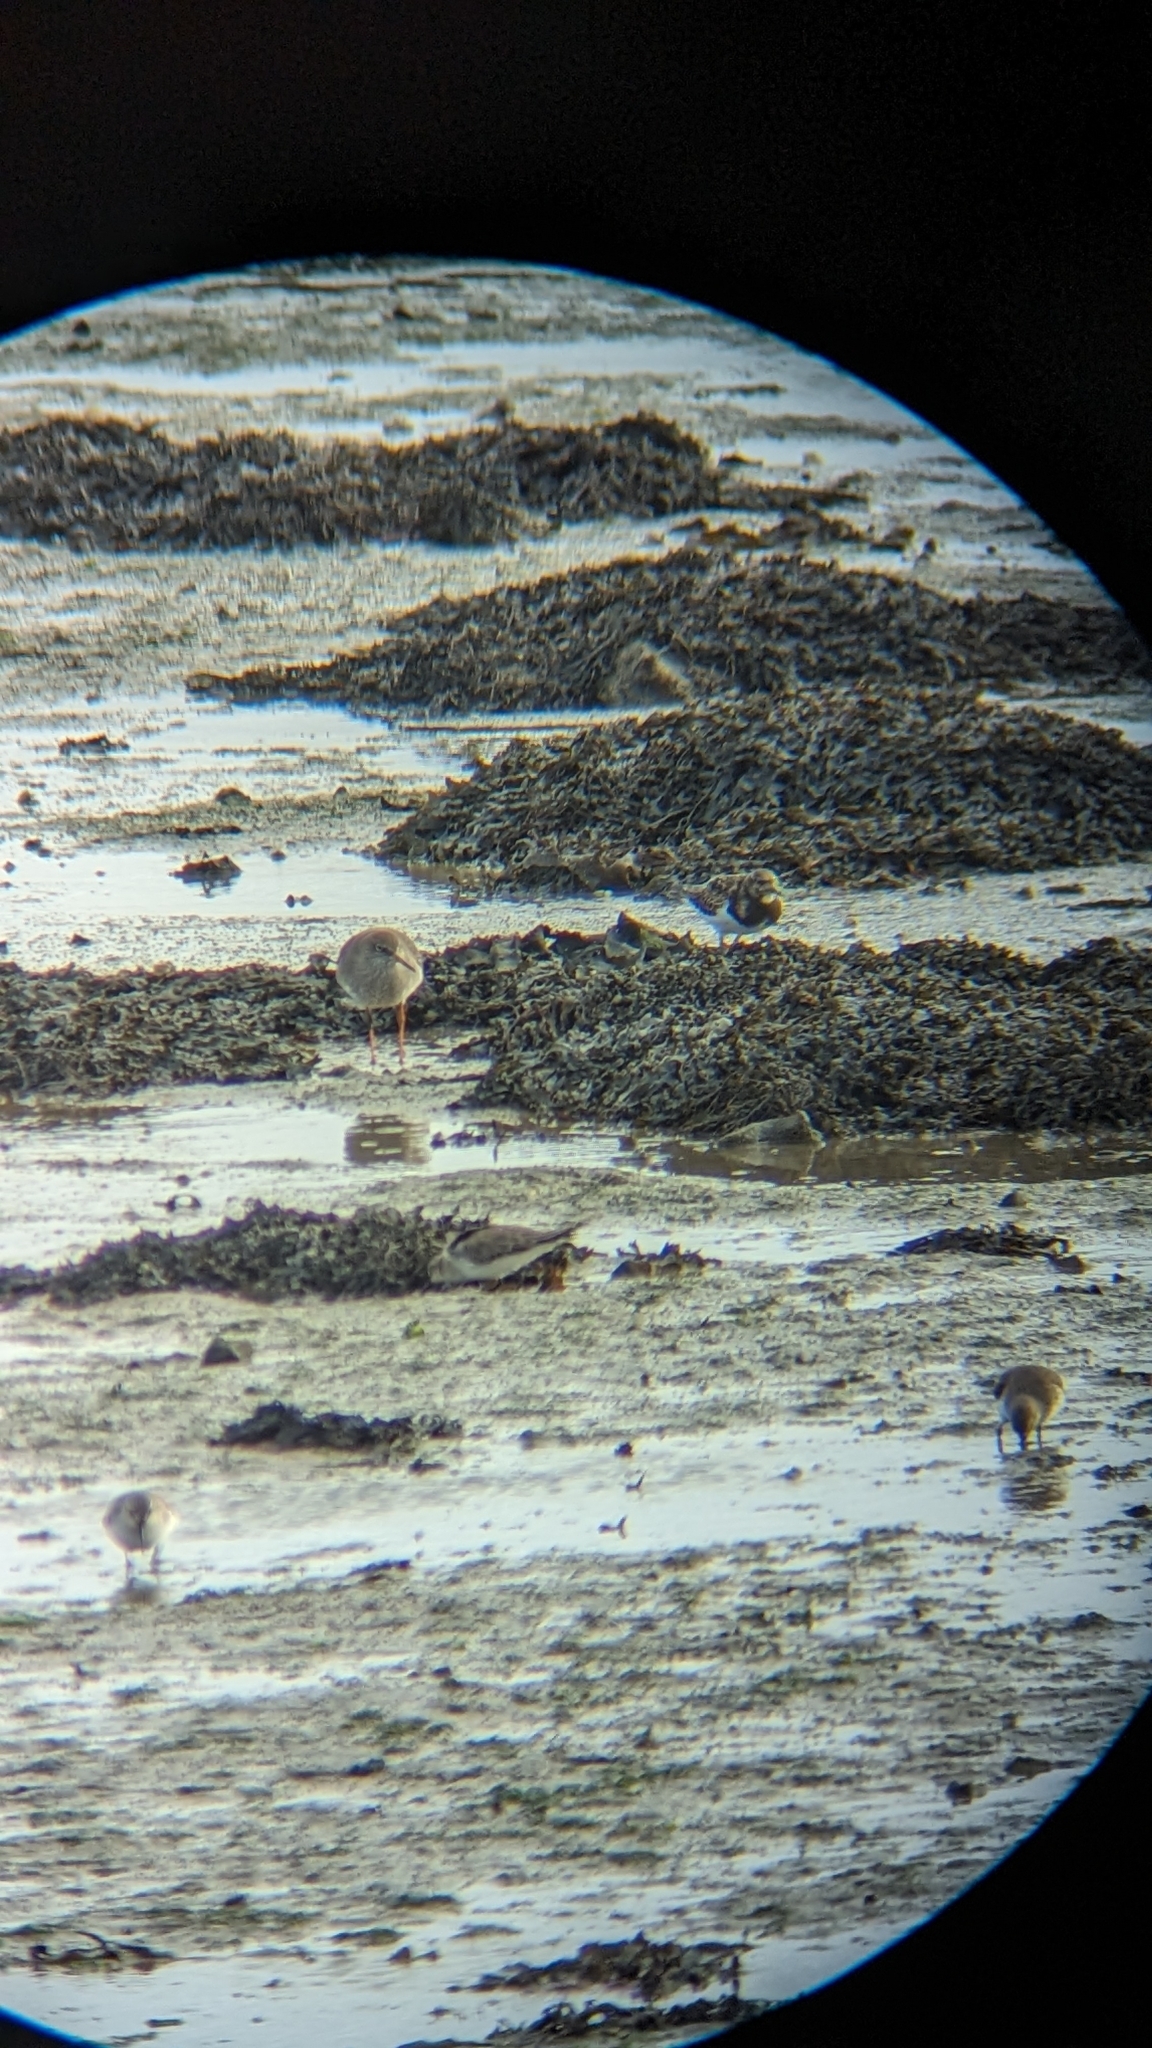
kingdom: Animalia
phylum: Chordata
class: Aves
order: Charadriiformes
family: Scolopacidae
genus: Calidris
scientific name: Calidris alba
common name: Sanderling
